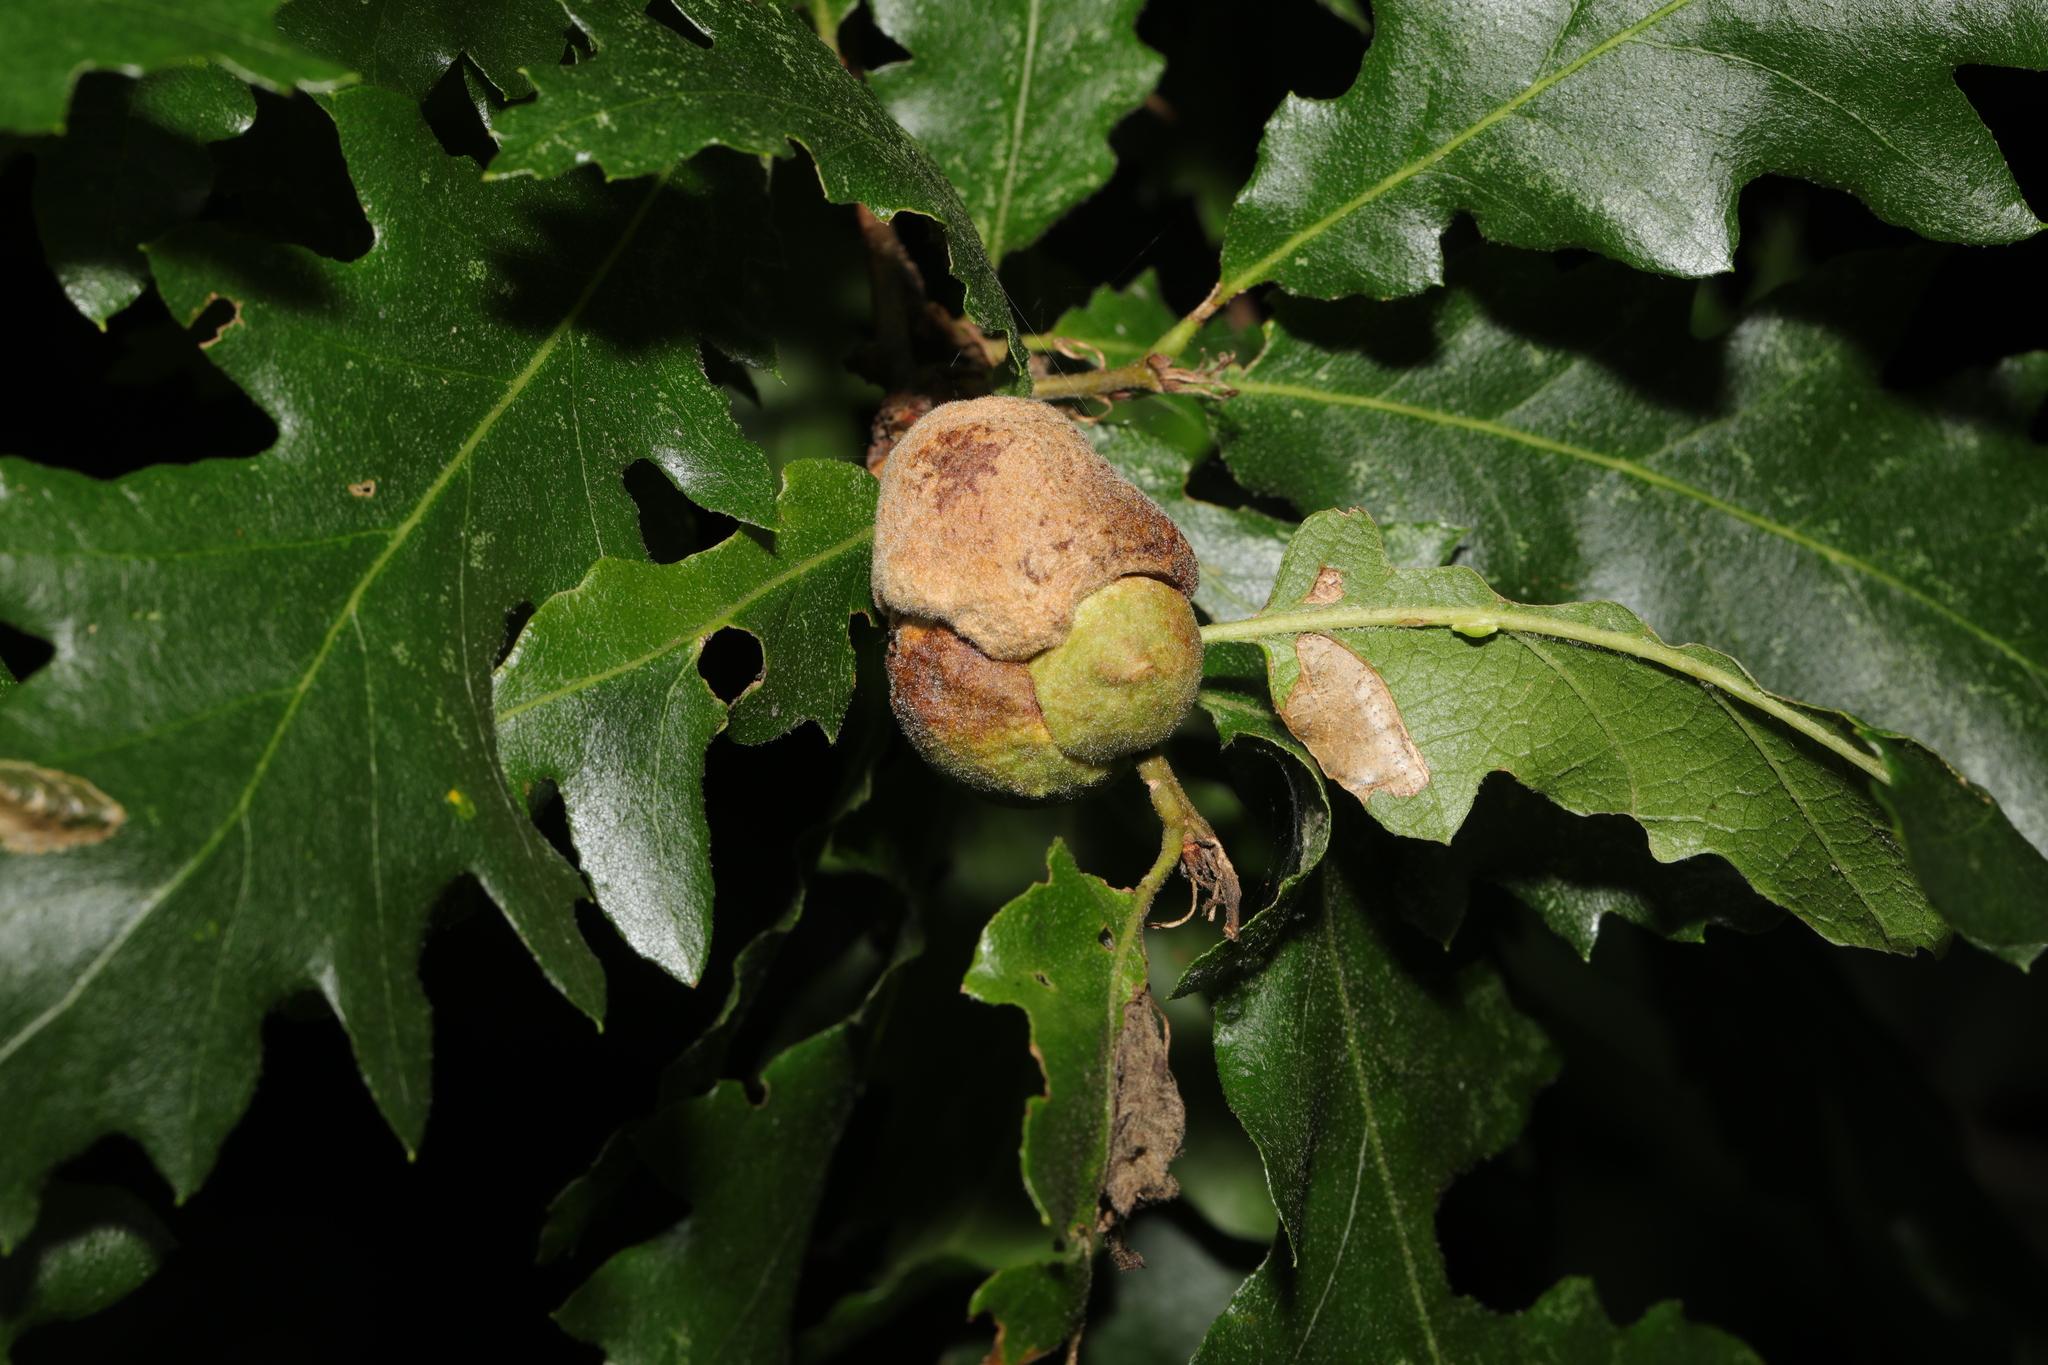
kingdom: Animalia
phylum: Arthropoda
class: Insecta
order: Hymenoptera
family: Cynipidae
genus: Aphelonyx
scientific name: Aphelonyx cerricola
